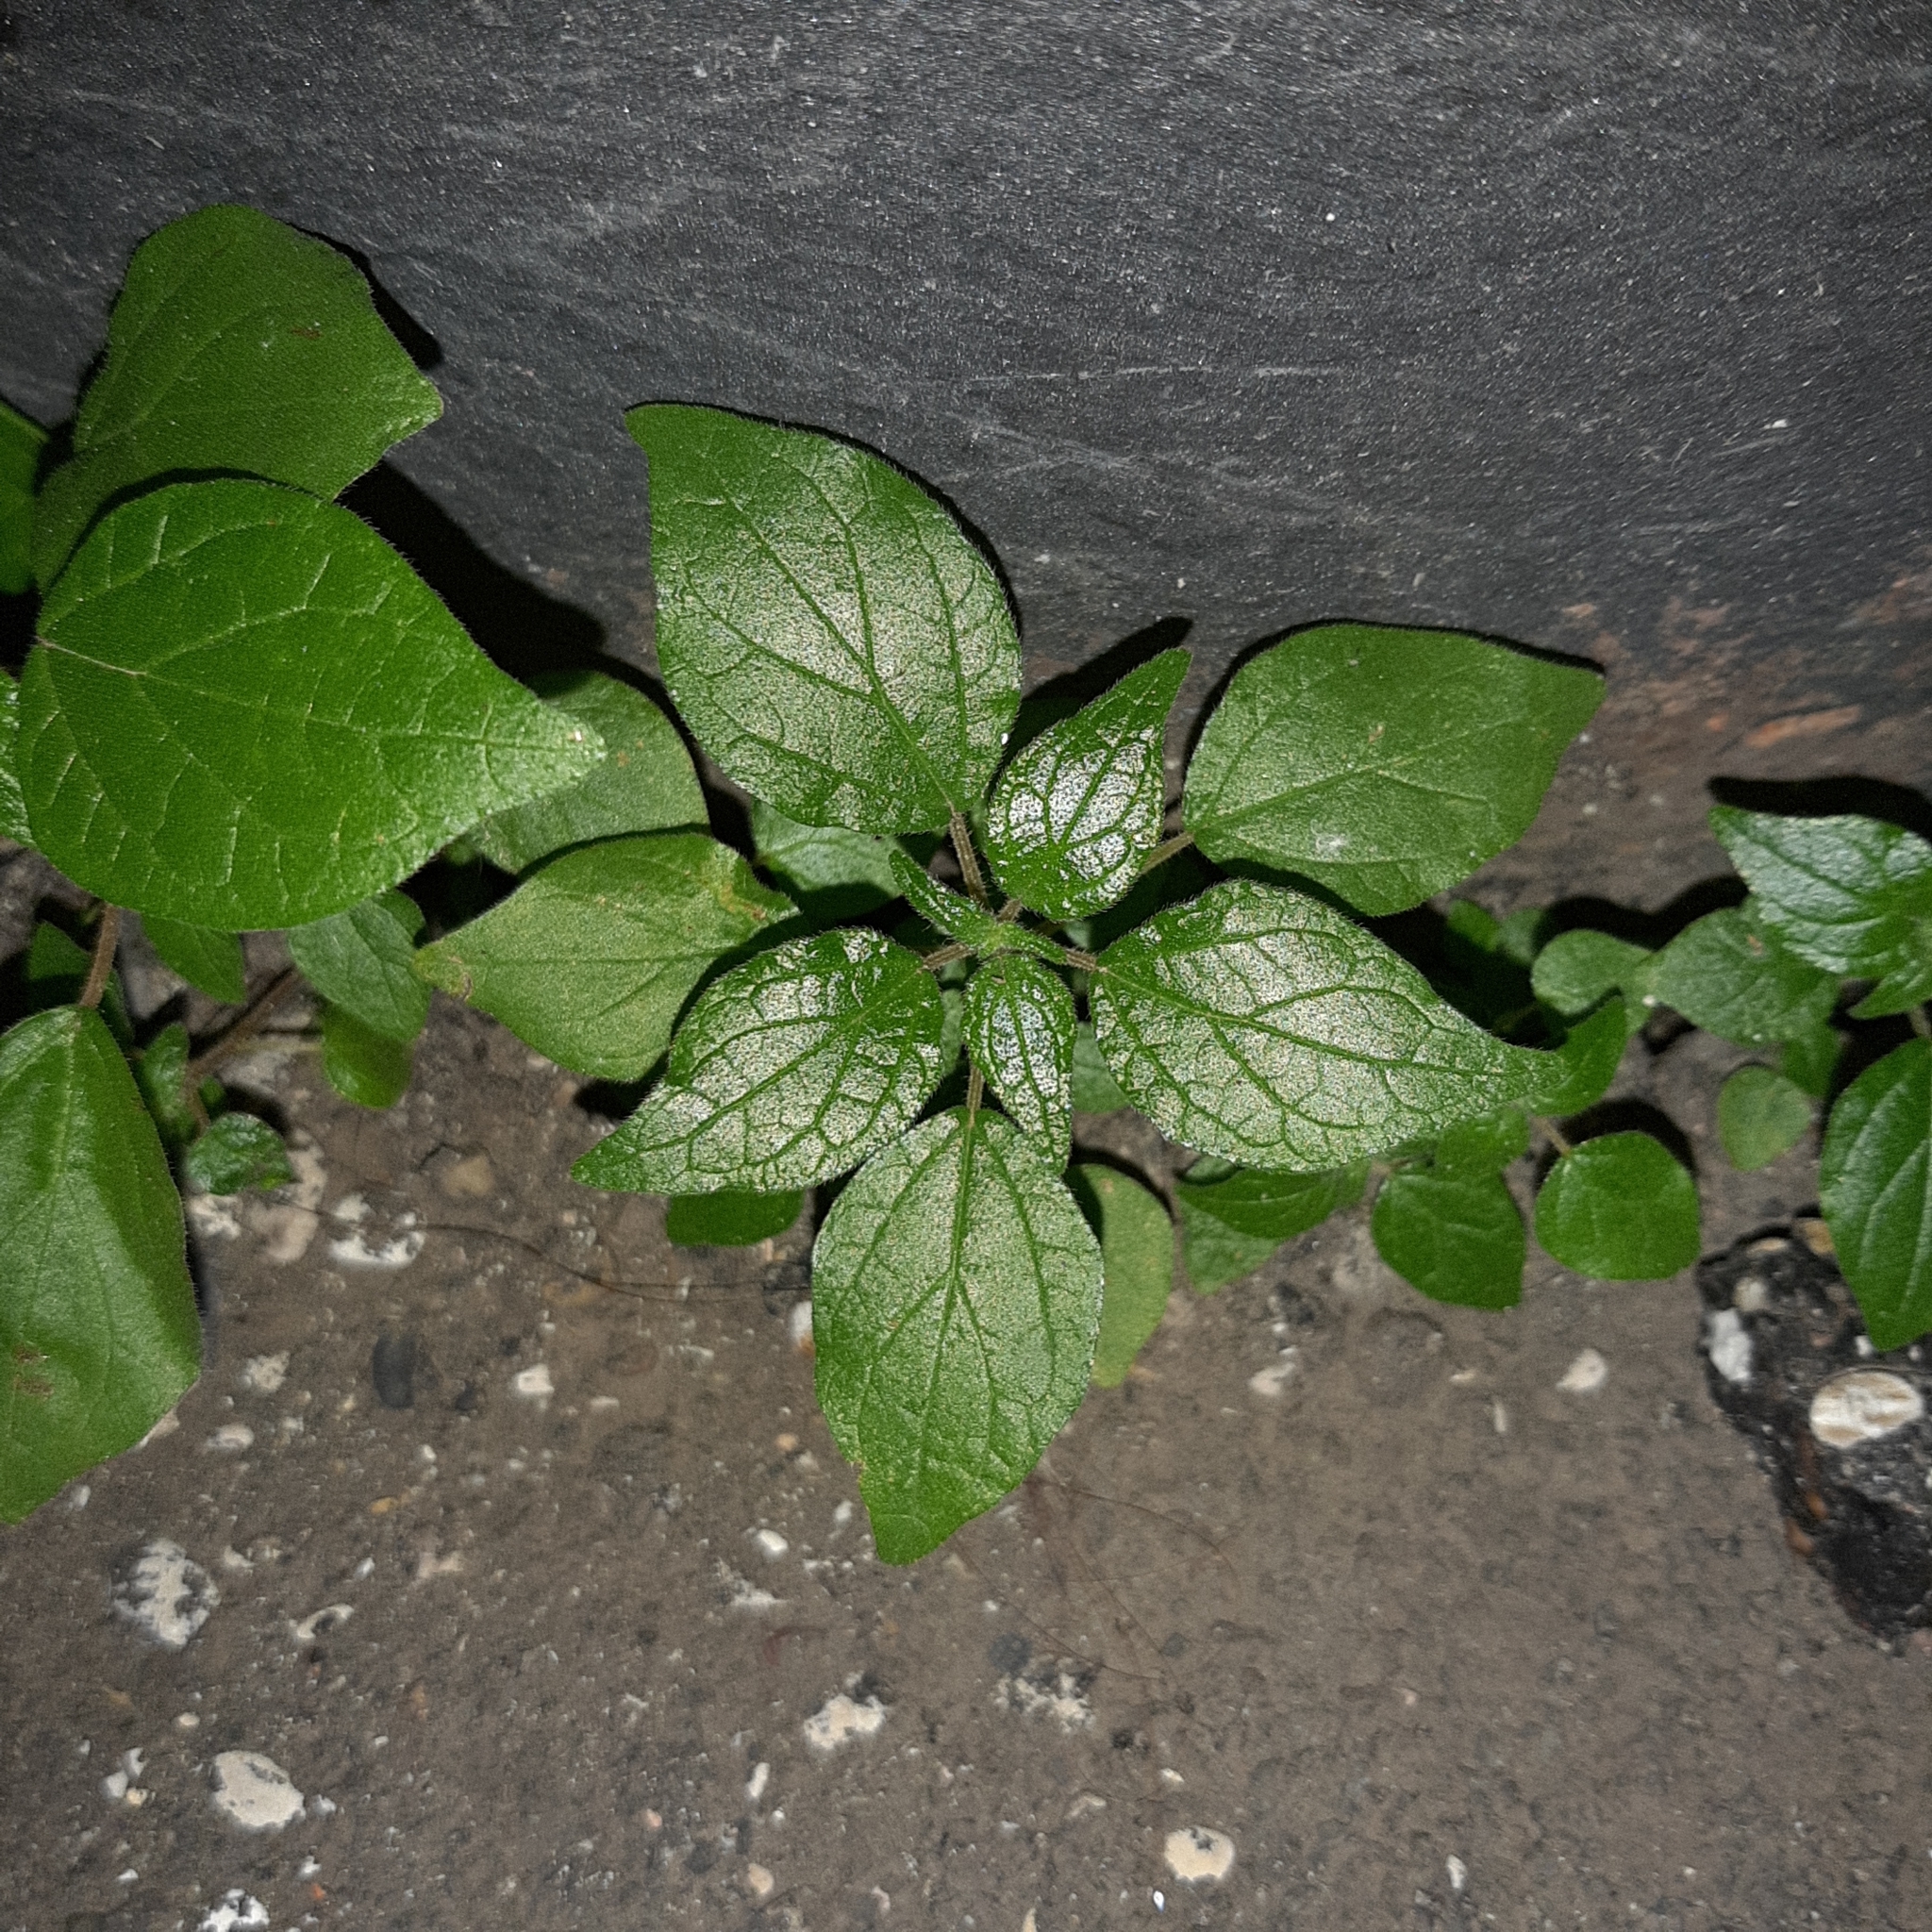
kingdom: Plantae
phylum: Tracheophyta
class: Magnoliopsida
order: Rosales
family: Urticaceae
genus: Parietaria
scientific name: Parietaria judaica
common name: Pellitory-of-the-wall
